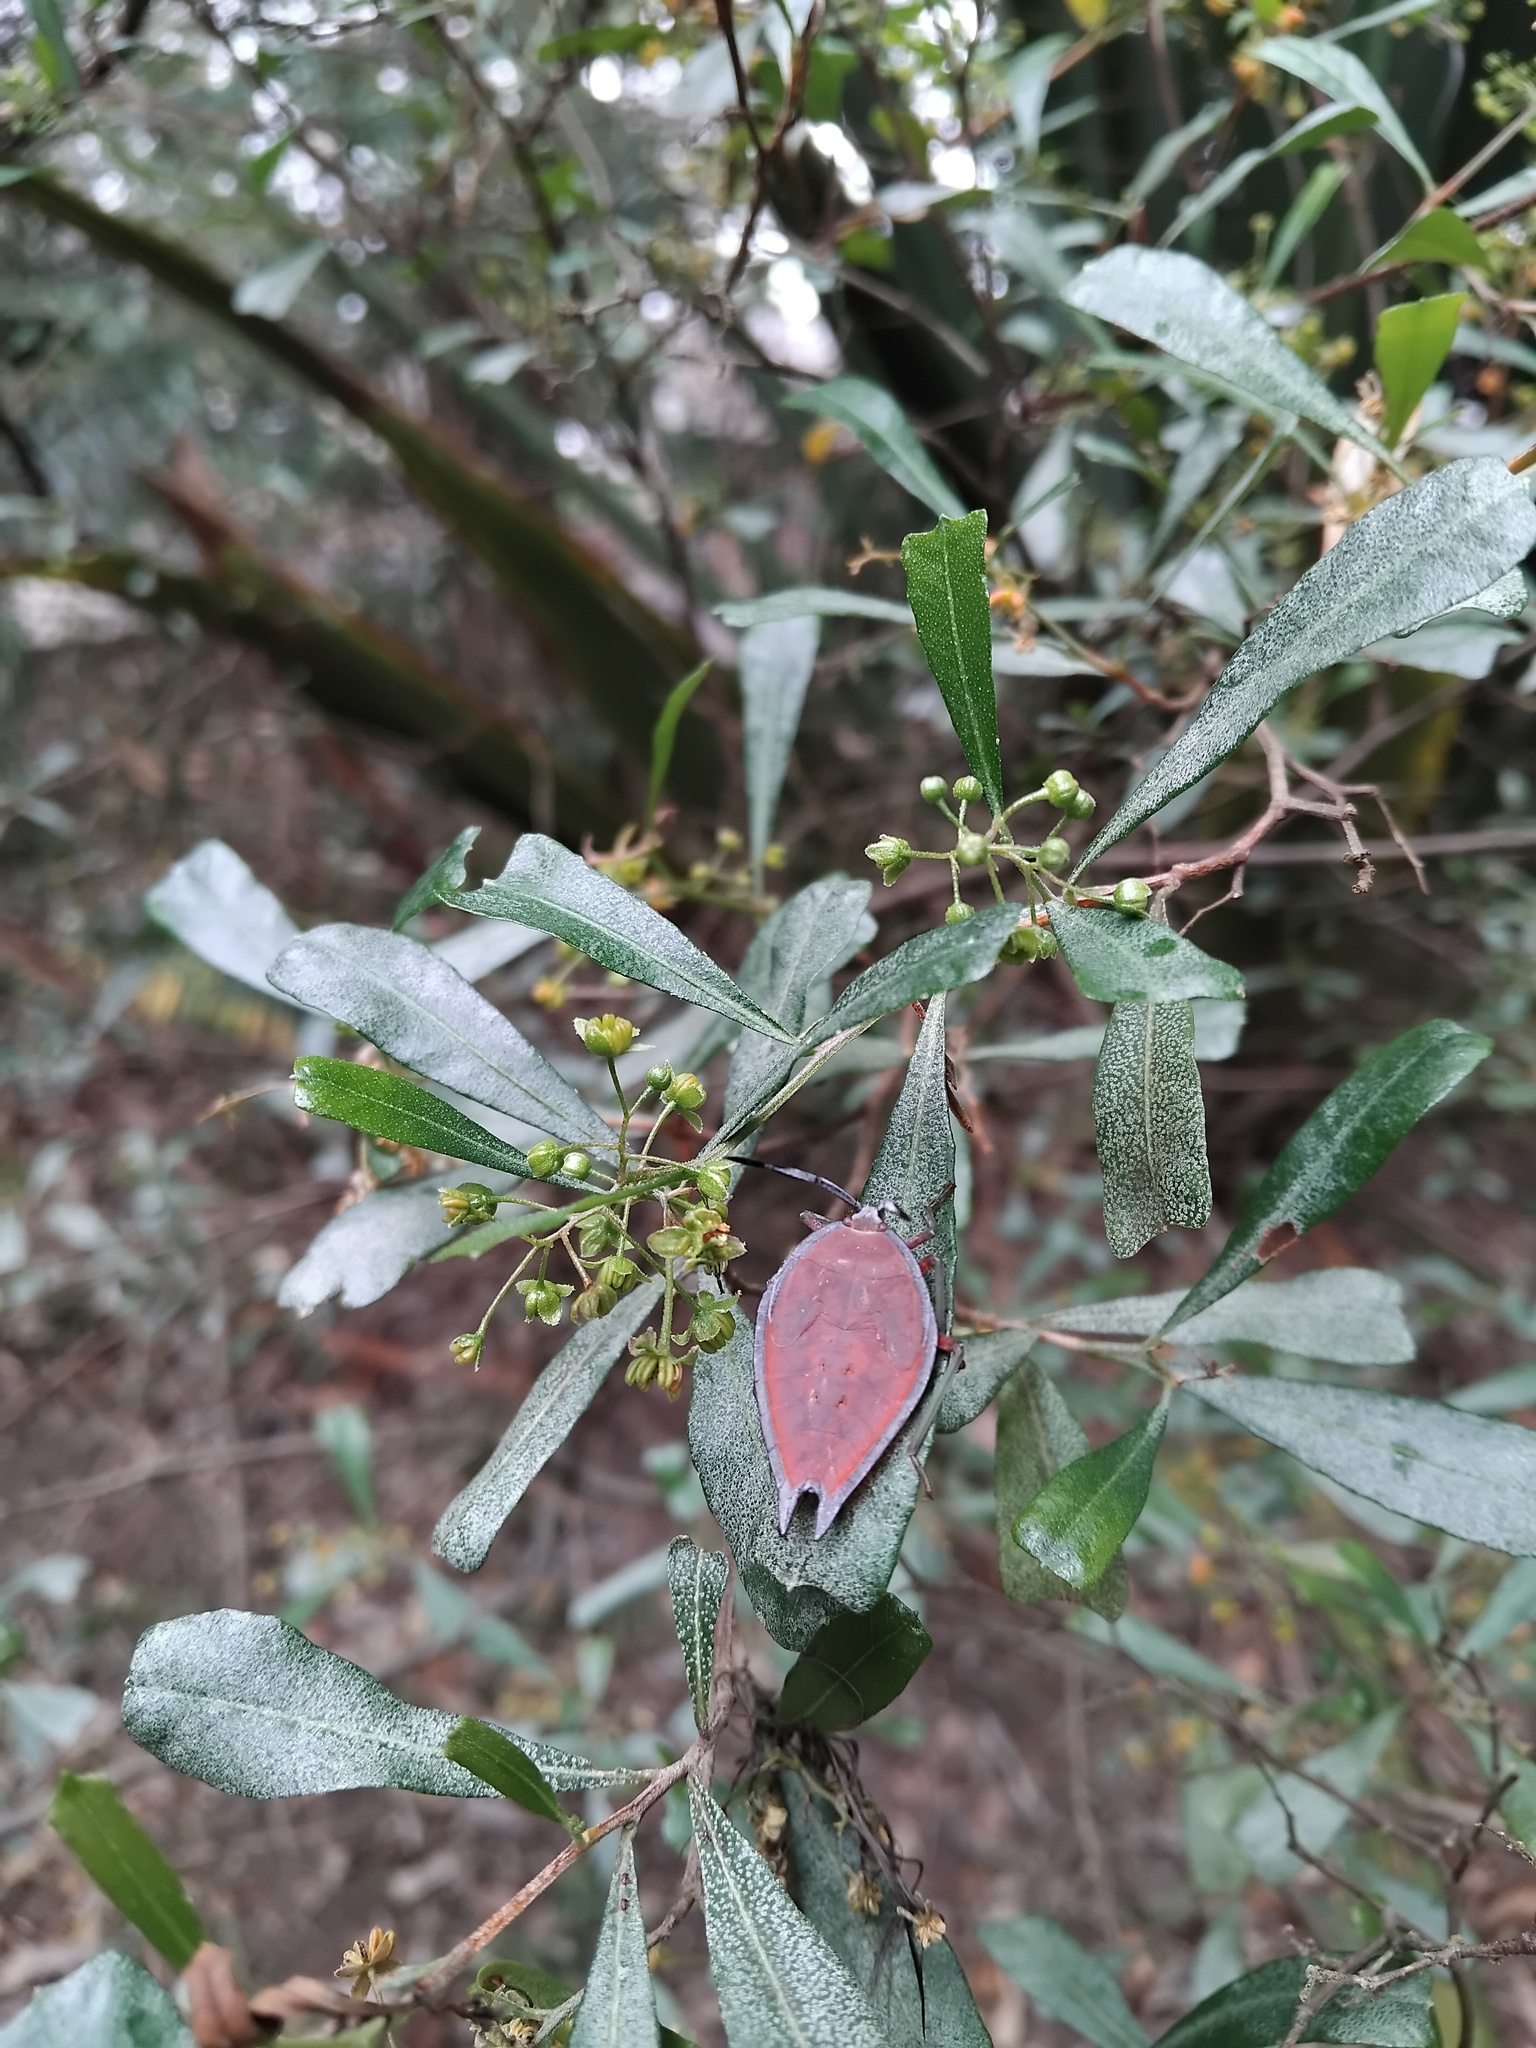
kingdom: Animalia
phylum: Arthropoda
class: Insecta
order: Hemiptera
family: Tessaratomidae
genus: Lyramorpha
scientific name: Lyramorpha rosea
